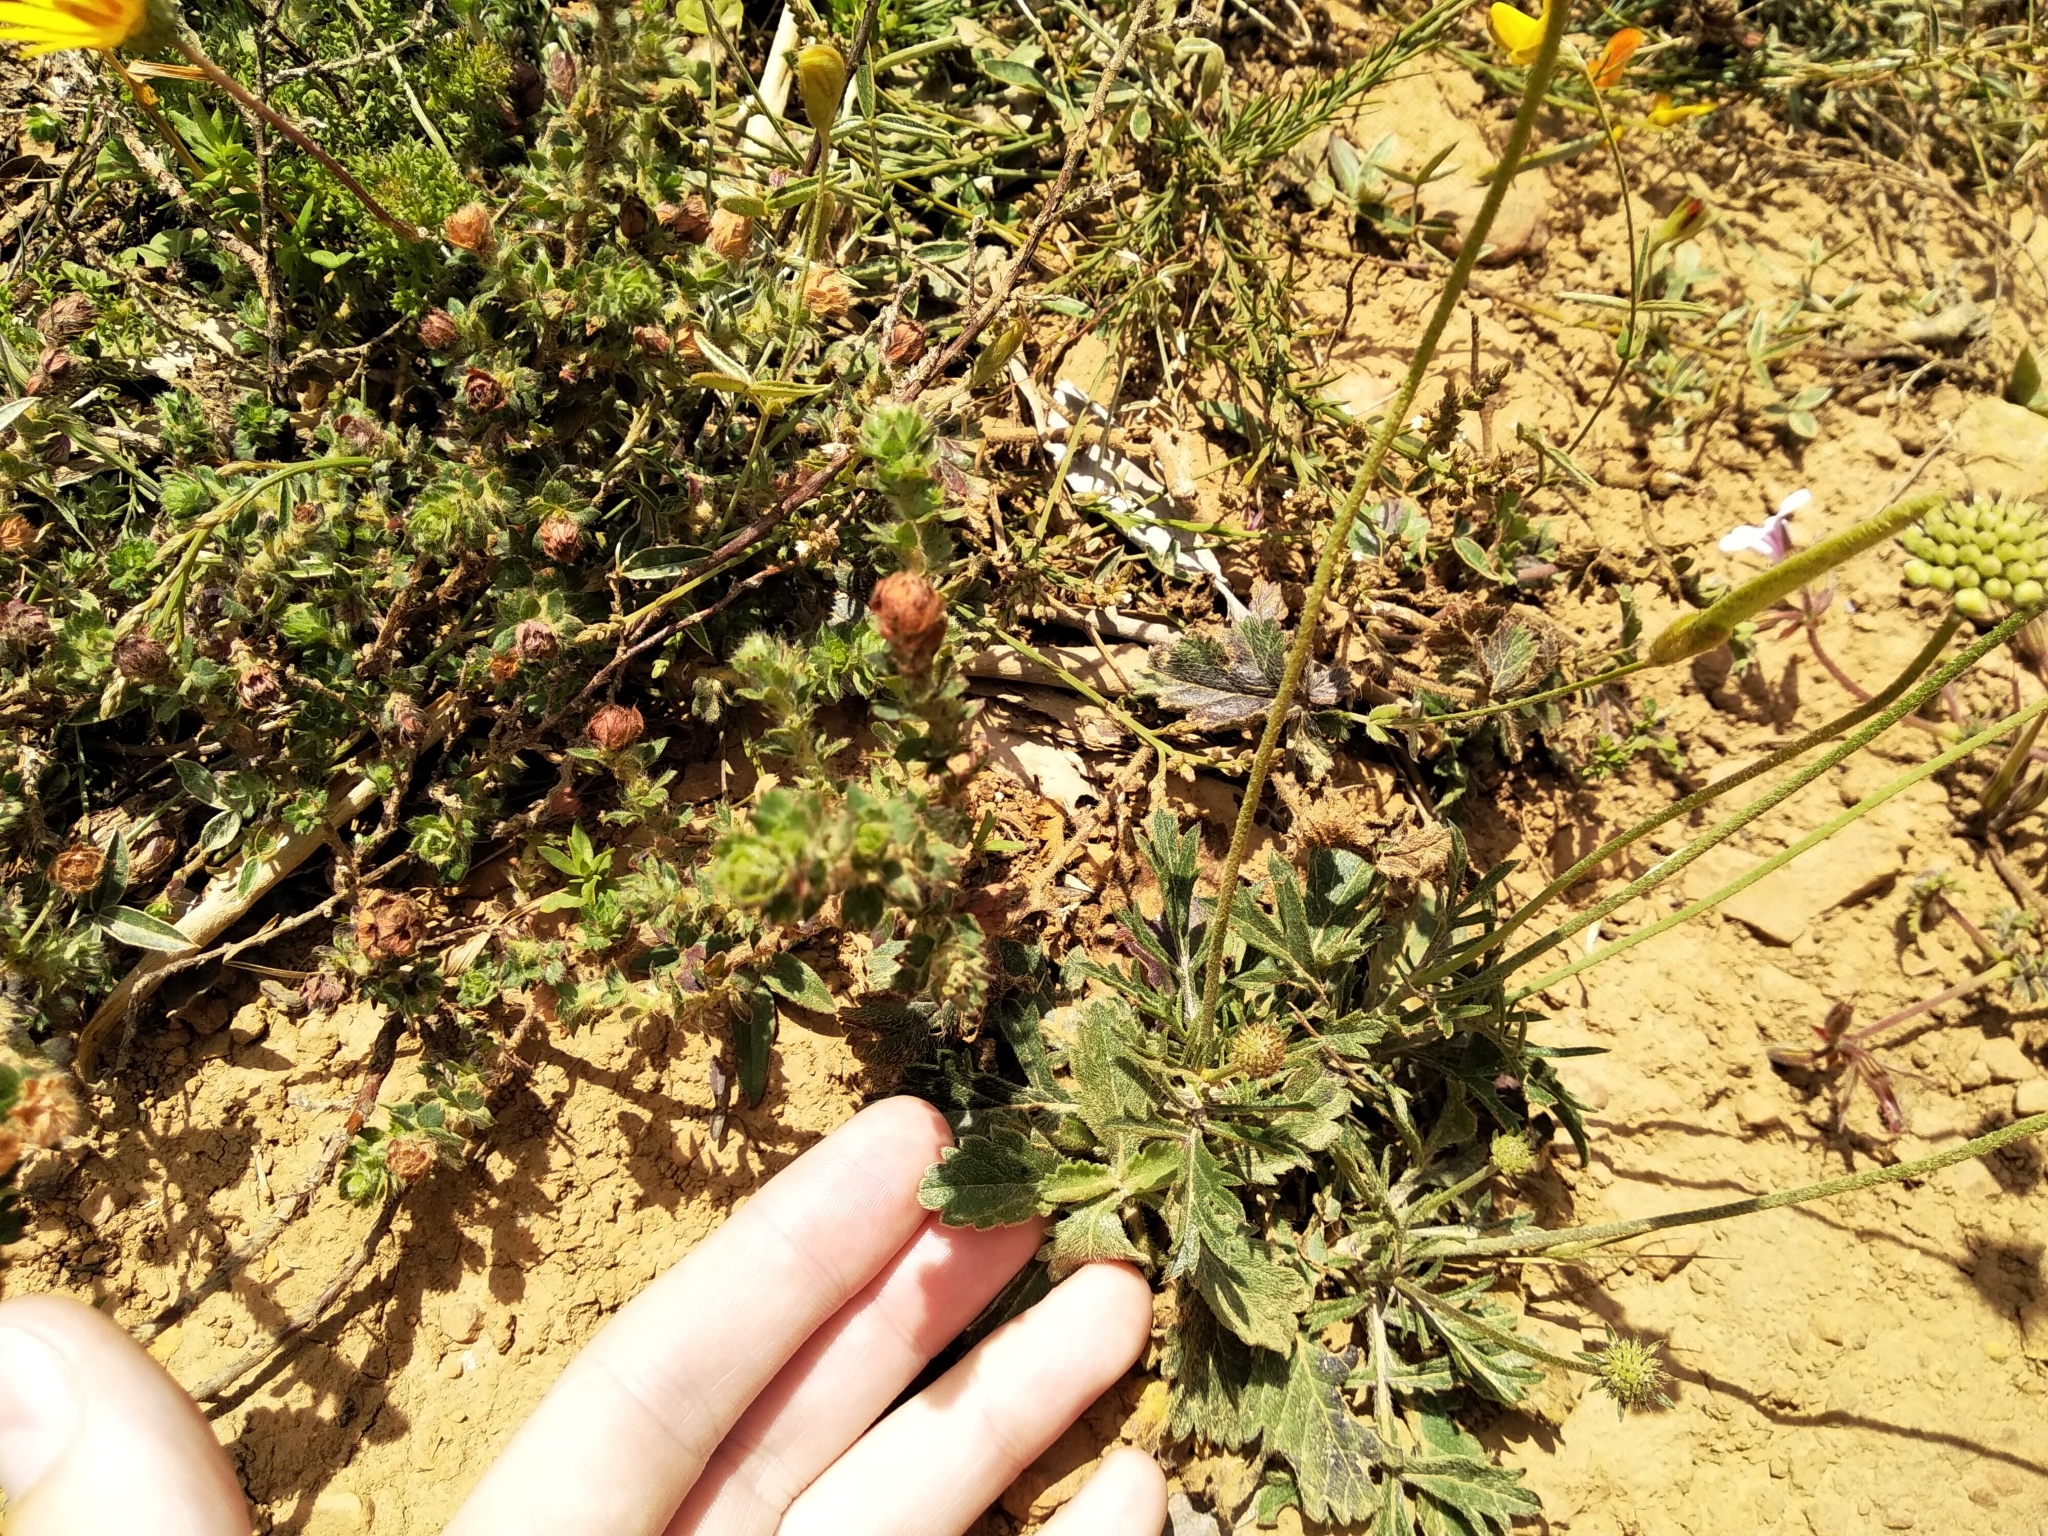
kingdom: Plantae
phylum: Tracheophyta
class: Magnoliopsida
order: Dipsacales
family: Caprifoliaceae
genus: Scabiosa
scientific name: Scabiosa columbaria
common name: Small scabious
